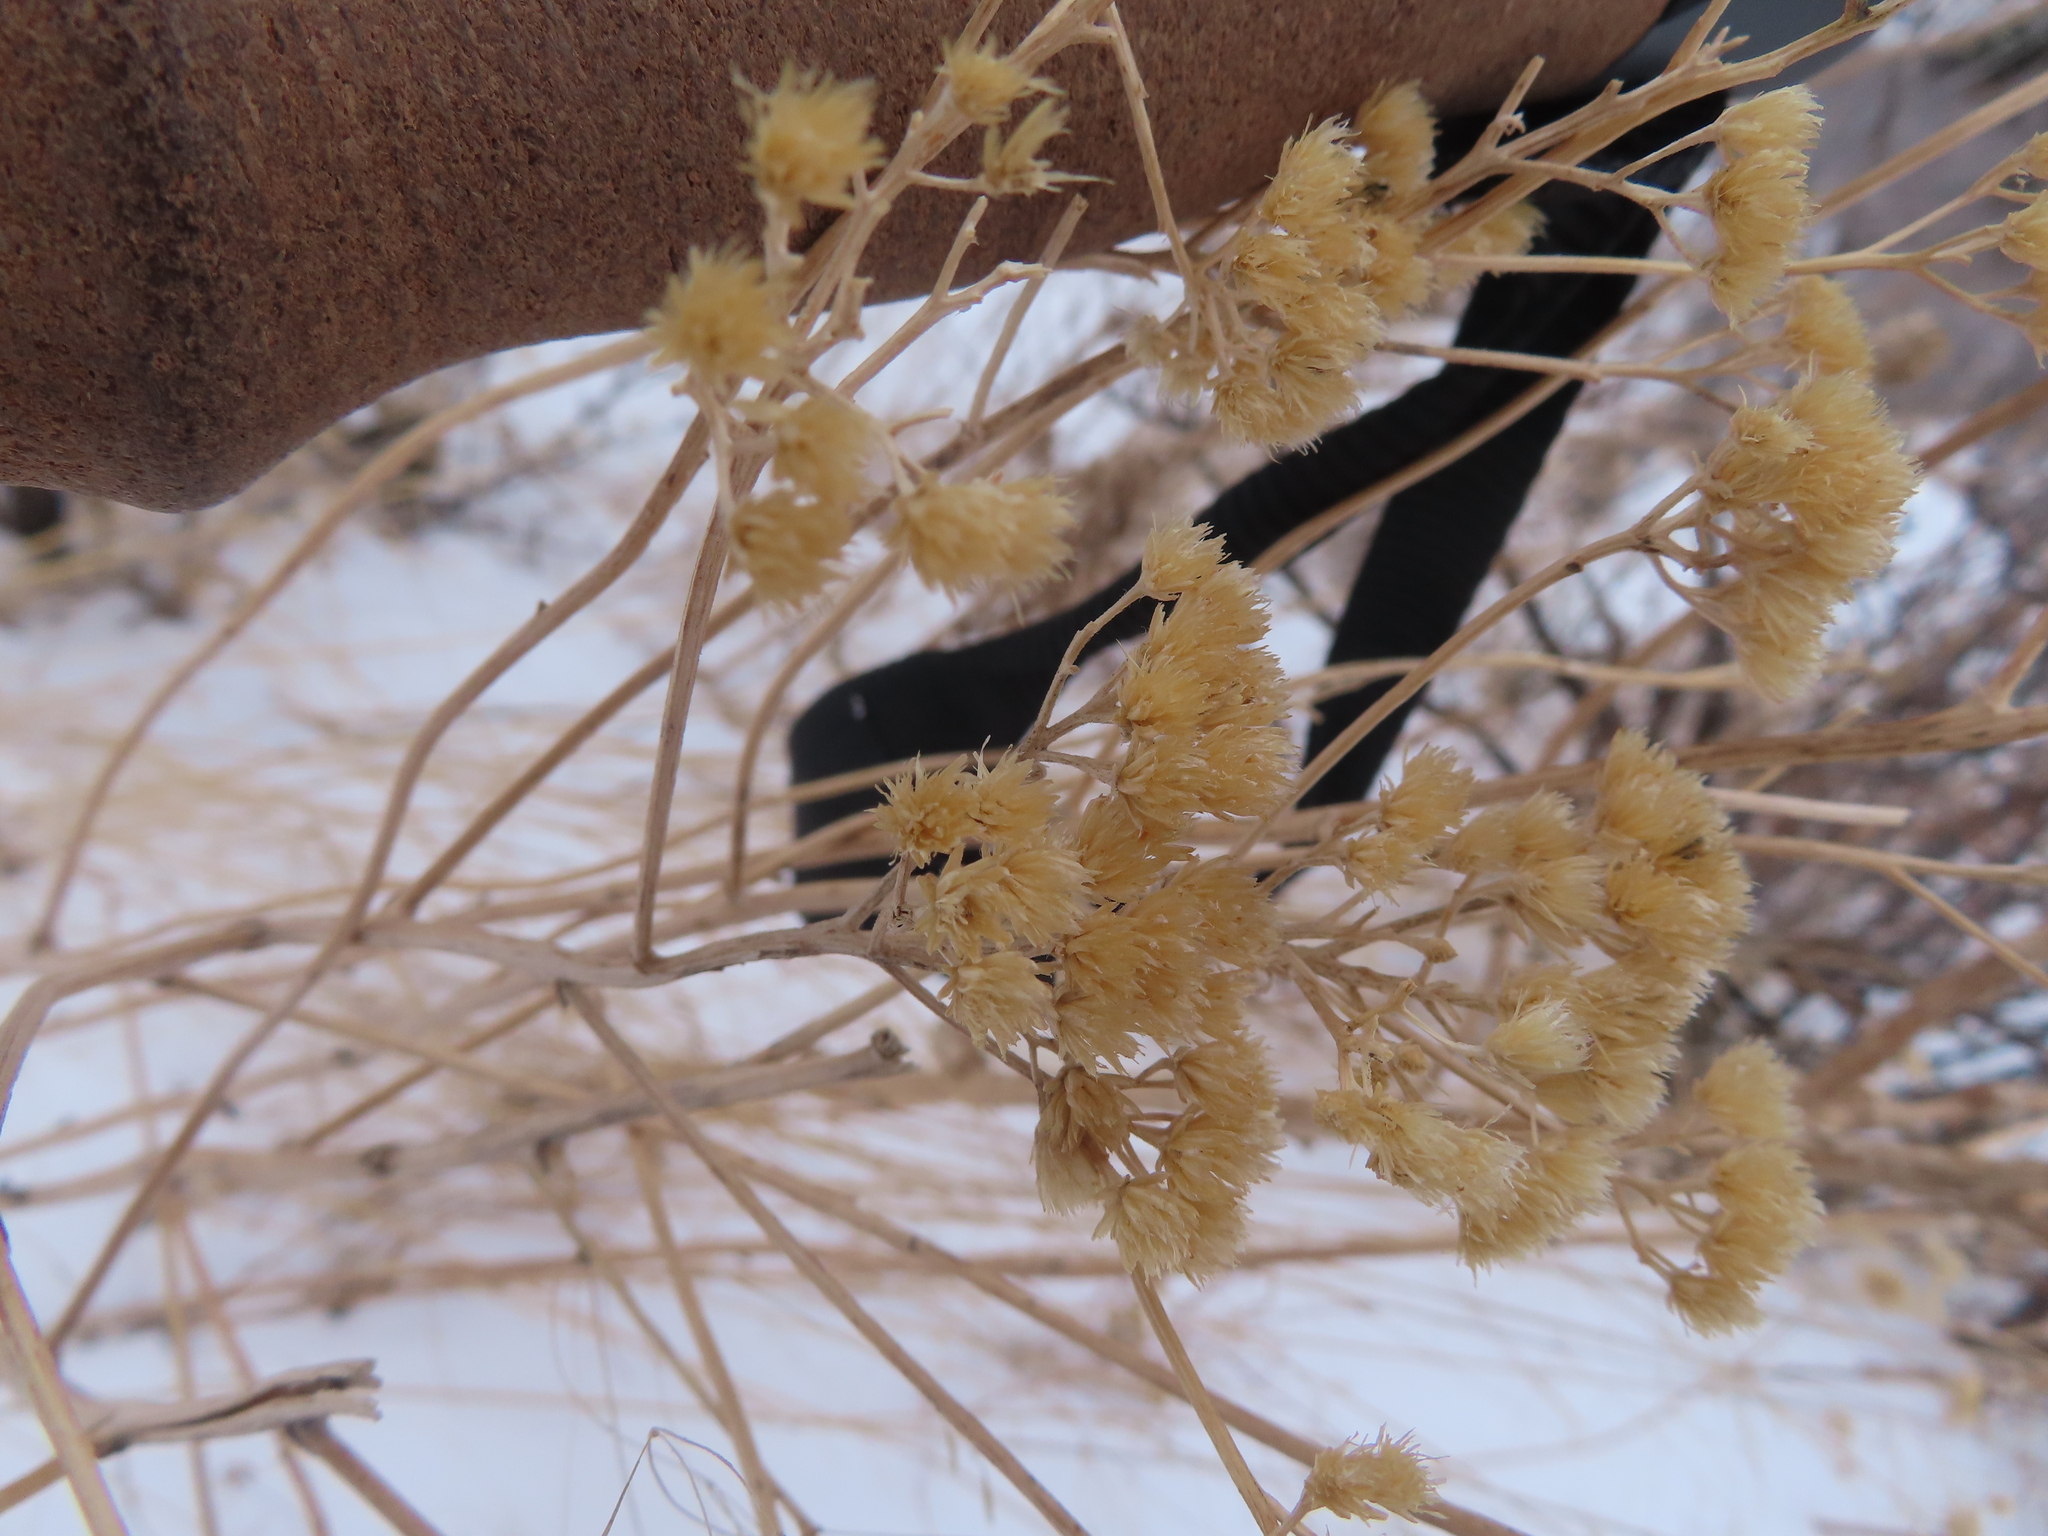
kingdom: Plantae
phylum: Tracheophyta
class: Magnoliopsida
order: Asterales
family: Asteraceae
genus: Ericameria
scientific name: Ericameria nauseosa
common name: Rubber rabbitbrush
